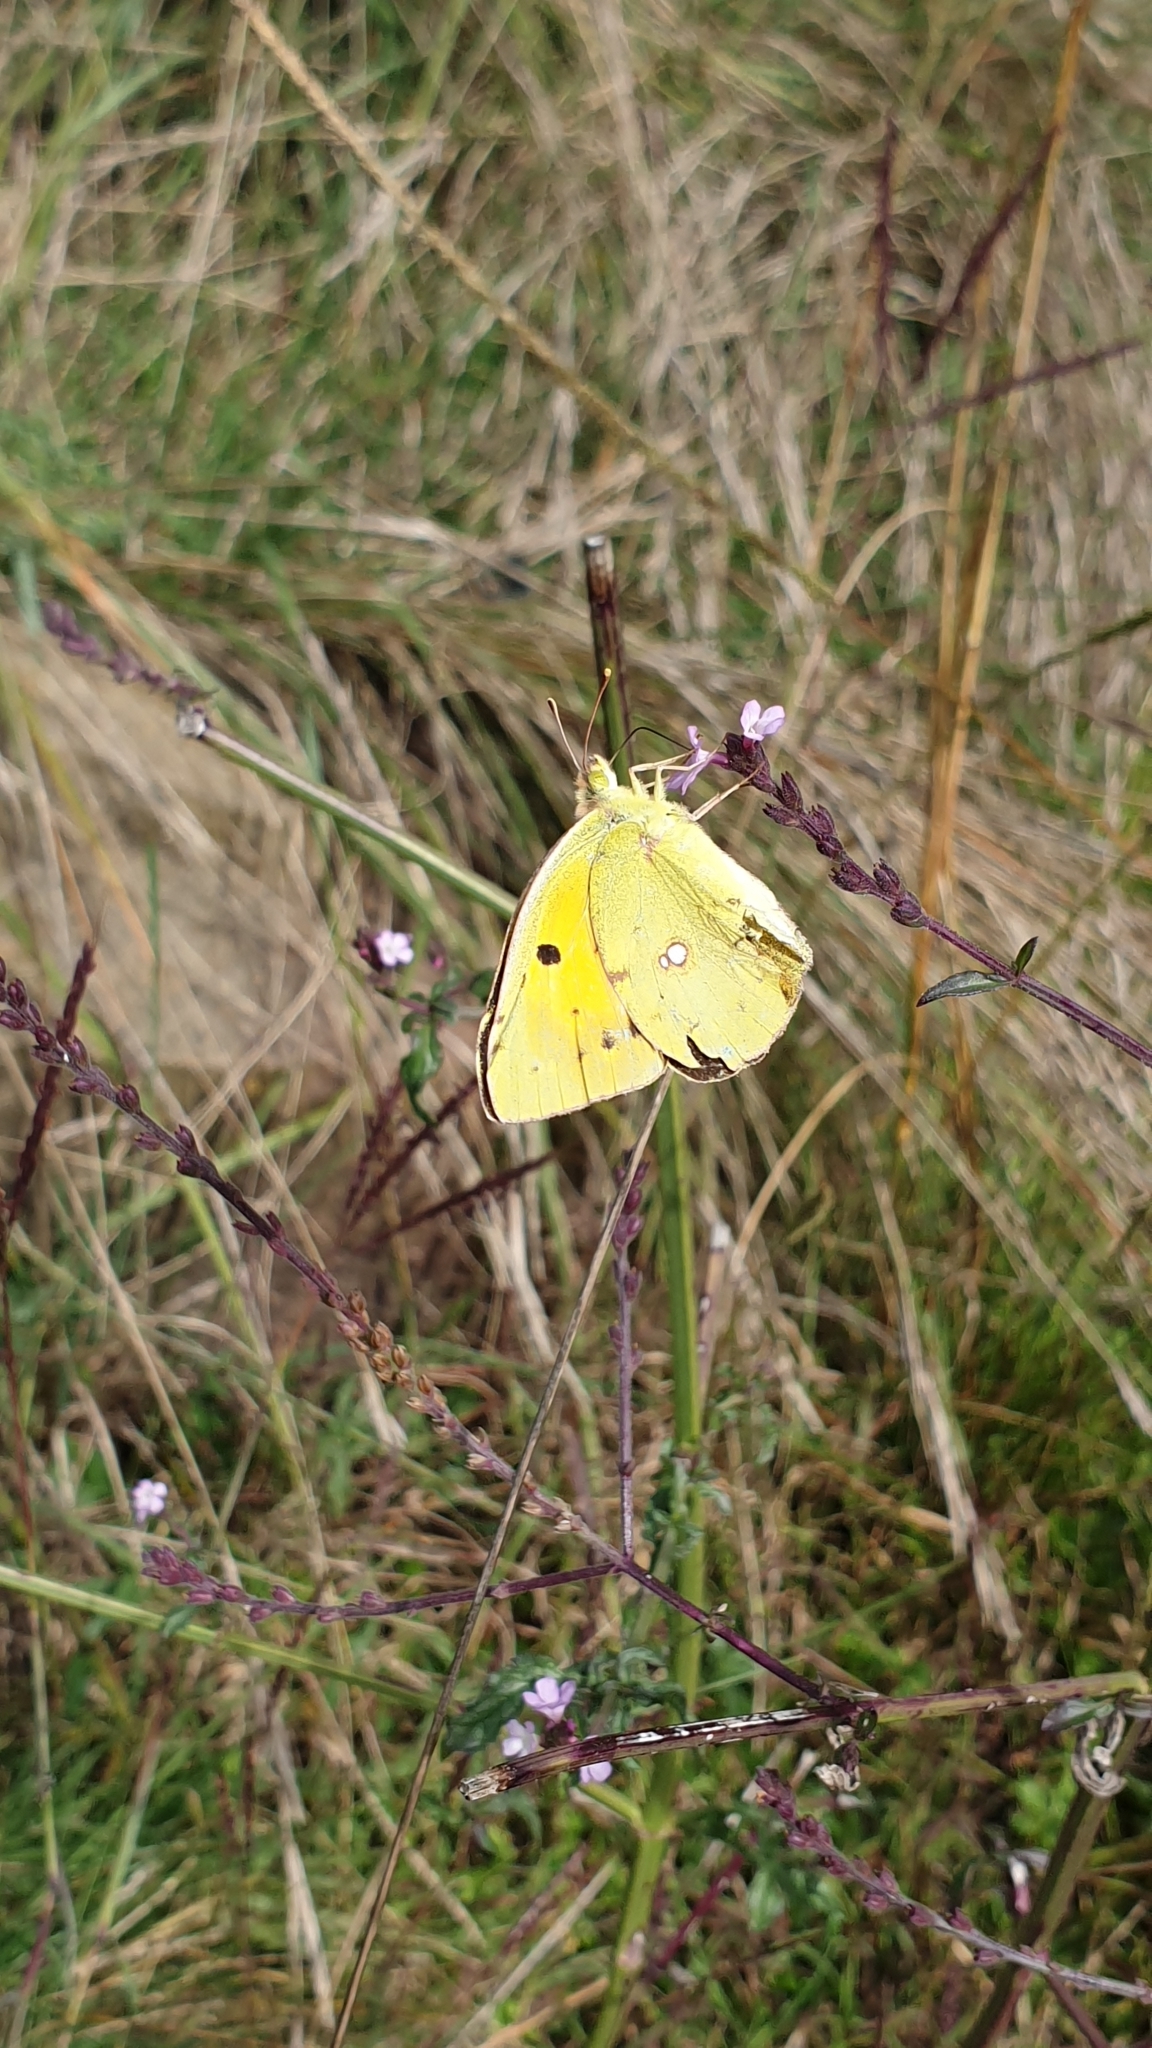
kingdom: Animalia
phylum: Arthropoda
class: Insecta
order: Lepidoptera
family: Pieridae
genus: Colias
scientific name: Colias croceus
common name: Clouded yellow
